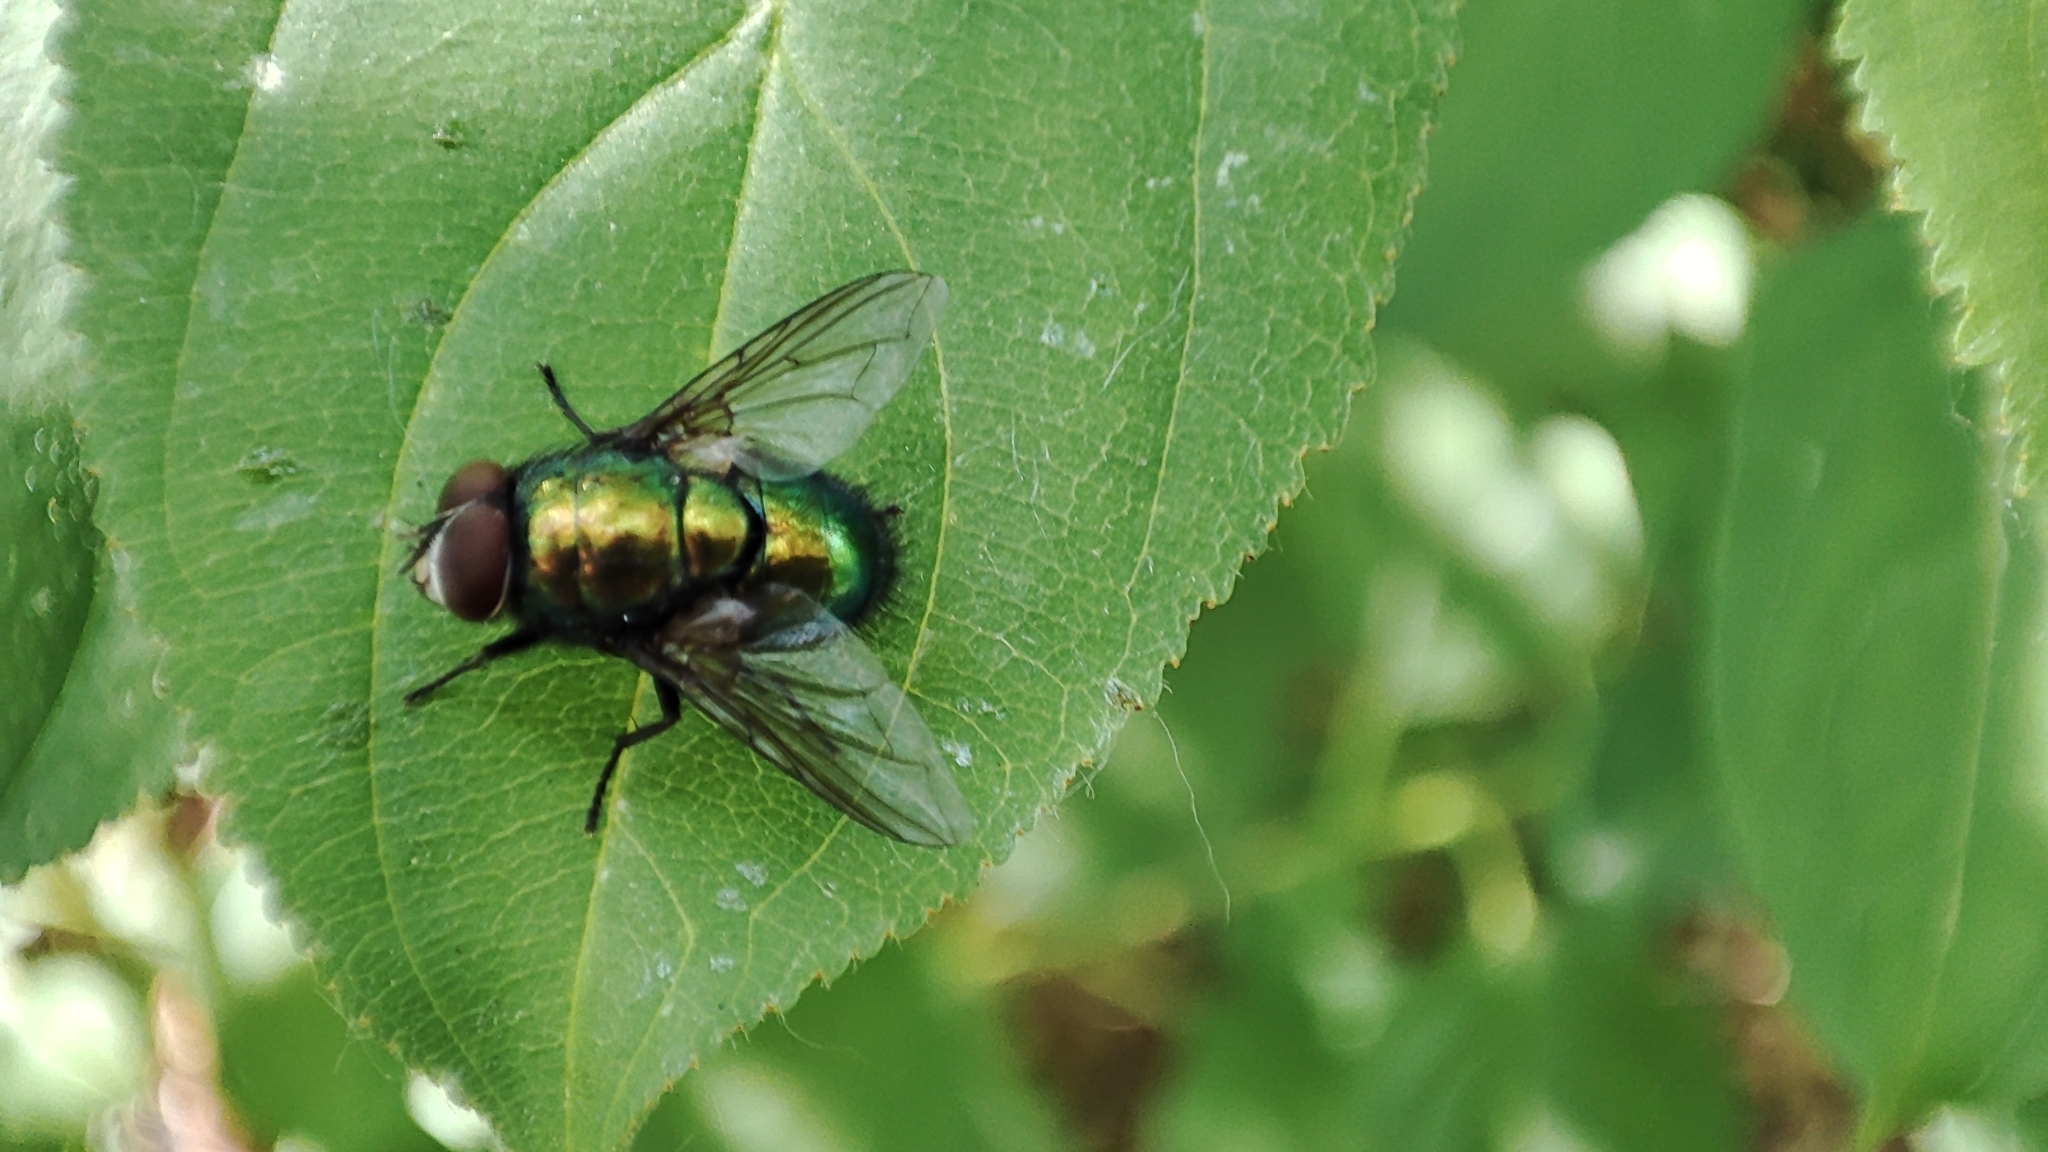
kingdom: Animalia
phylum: Arthropoda
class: Insecta
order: Diptera
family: Calliphoridae
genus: Lucilia
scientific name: Lucilia sericata
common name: Blow fly
